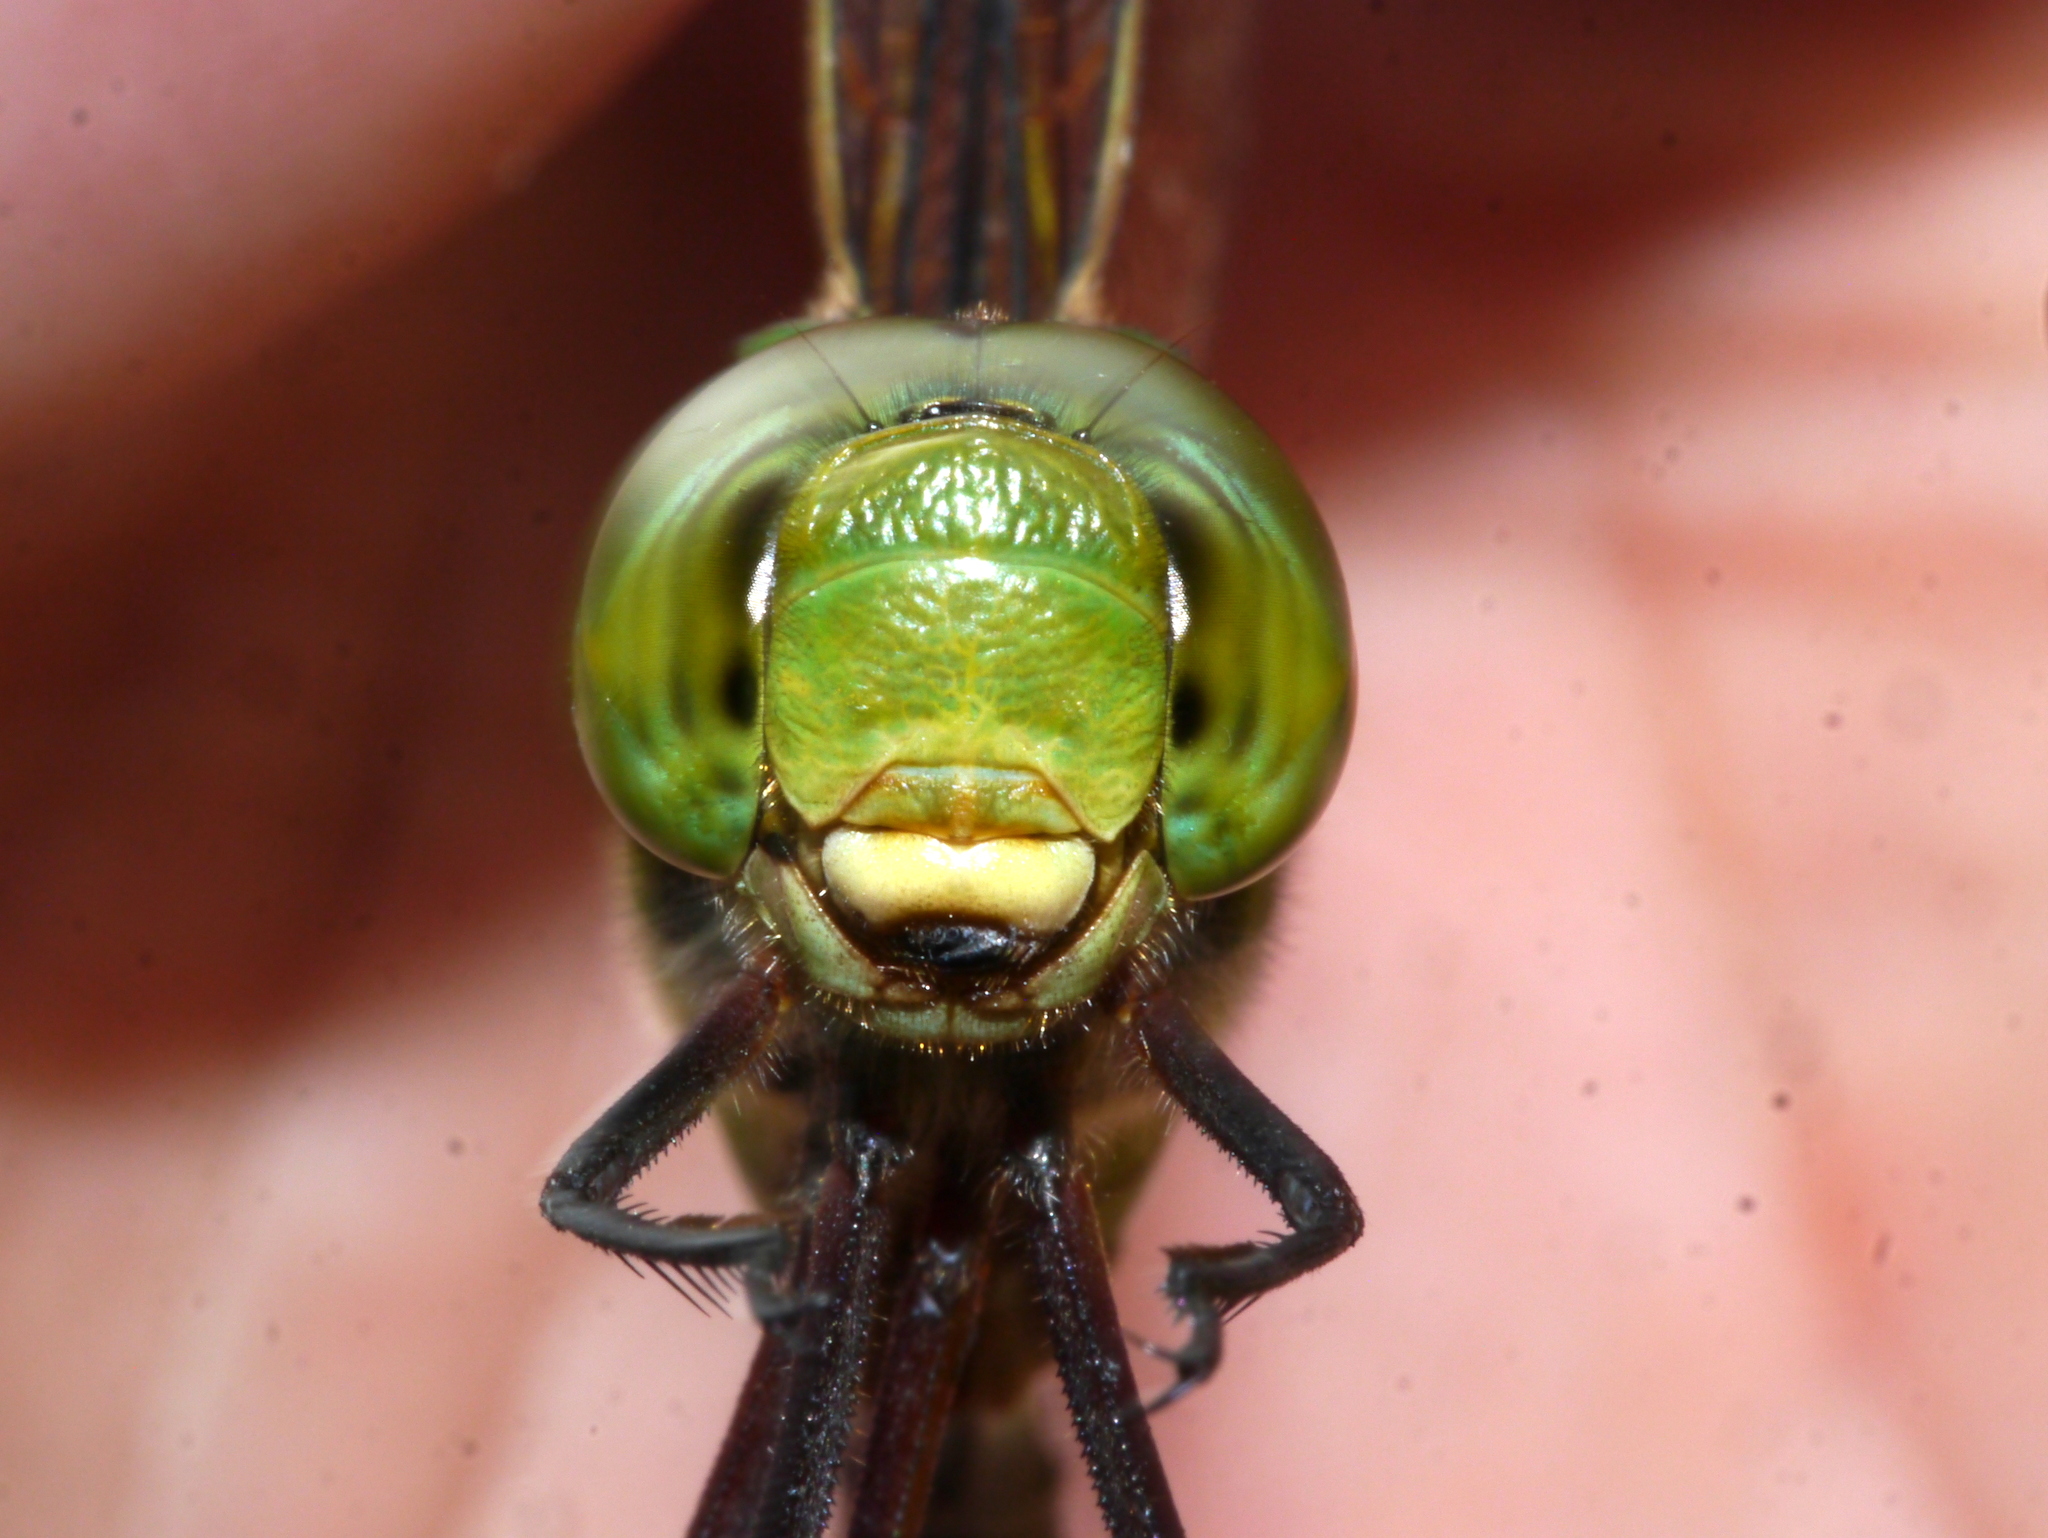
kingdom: Animalia
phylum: Arthropoda
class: Insecta
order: Odonata
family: Aeshnidae
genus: Anax
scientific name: Anax junius
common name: Common green darner
